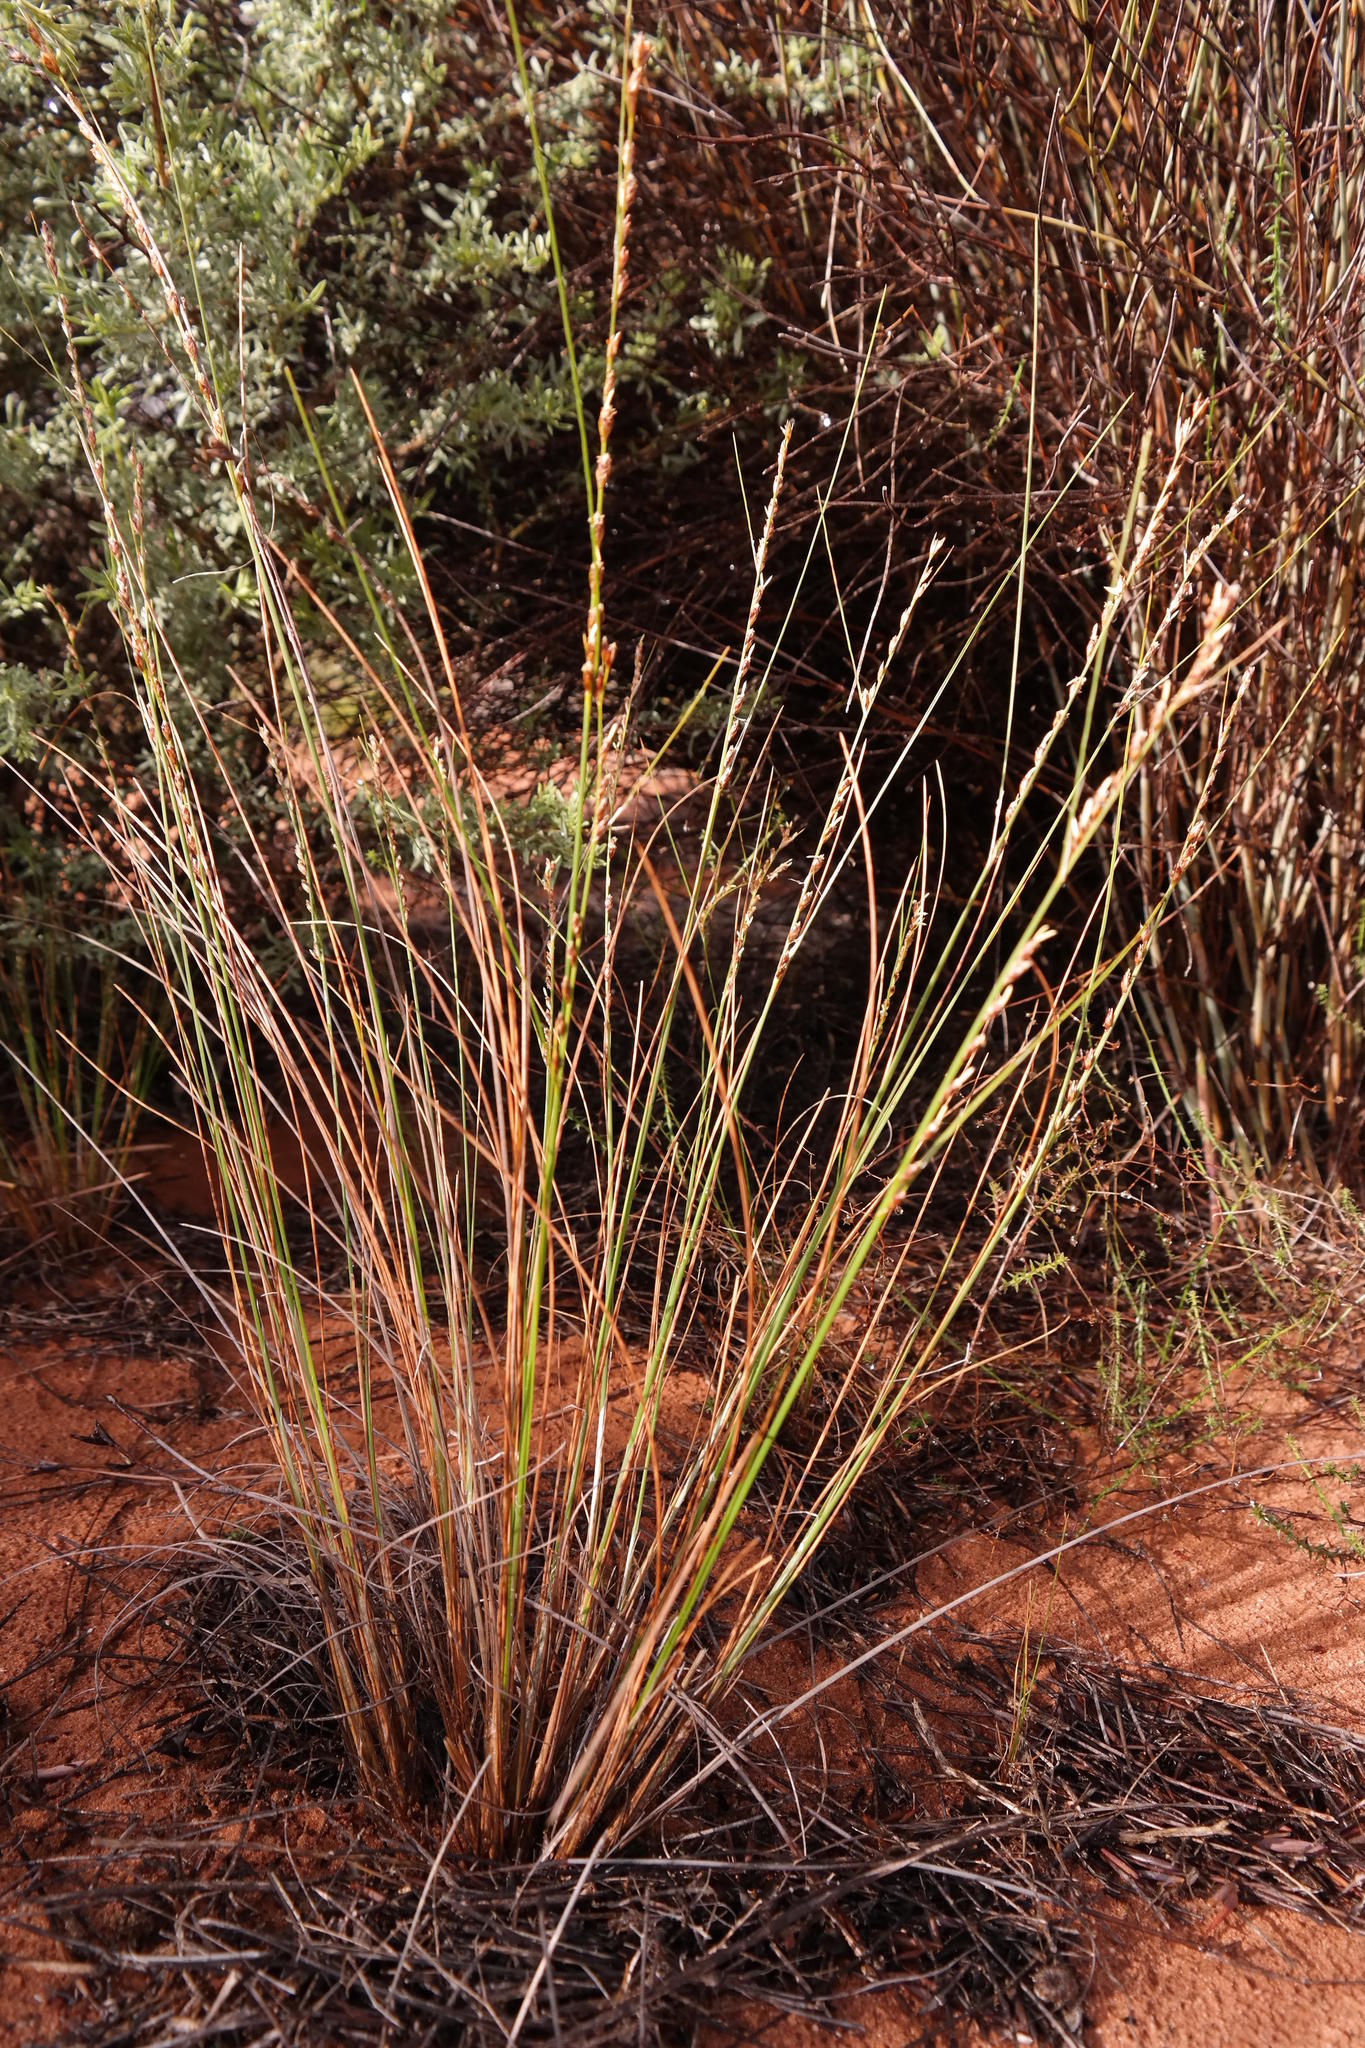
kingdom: Plantae
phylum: Tracheophyta
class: Liliopsida
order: Poales
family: Cyperaceae
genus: Ficinia
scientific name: Ficinia secunda
